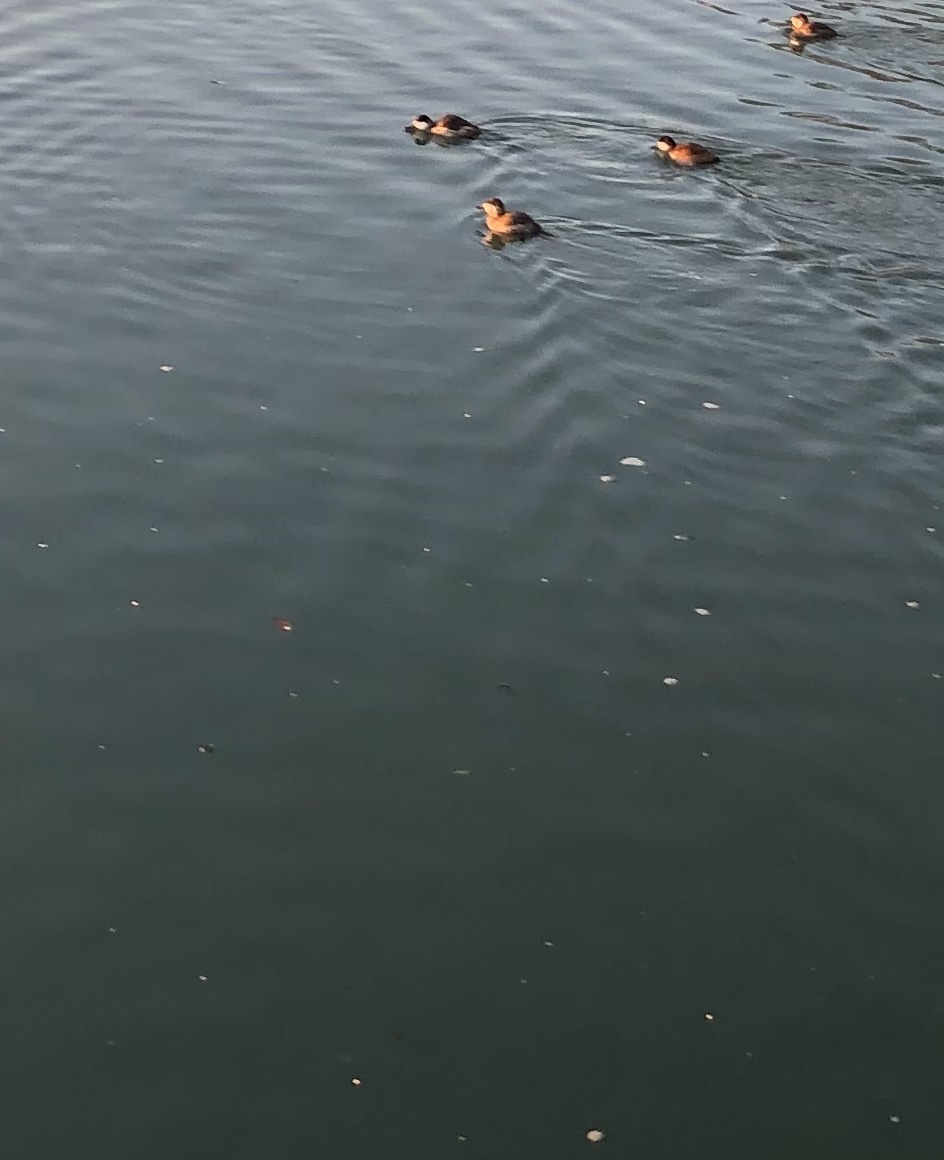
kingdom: Animalia
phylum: Chordata
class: Aves
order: Anseriformes
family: Anatidae
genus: Oxyura
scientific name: Oxyura jamaicensis
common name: Ruddy duck
